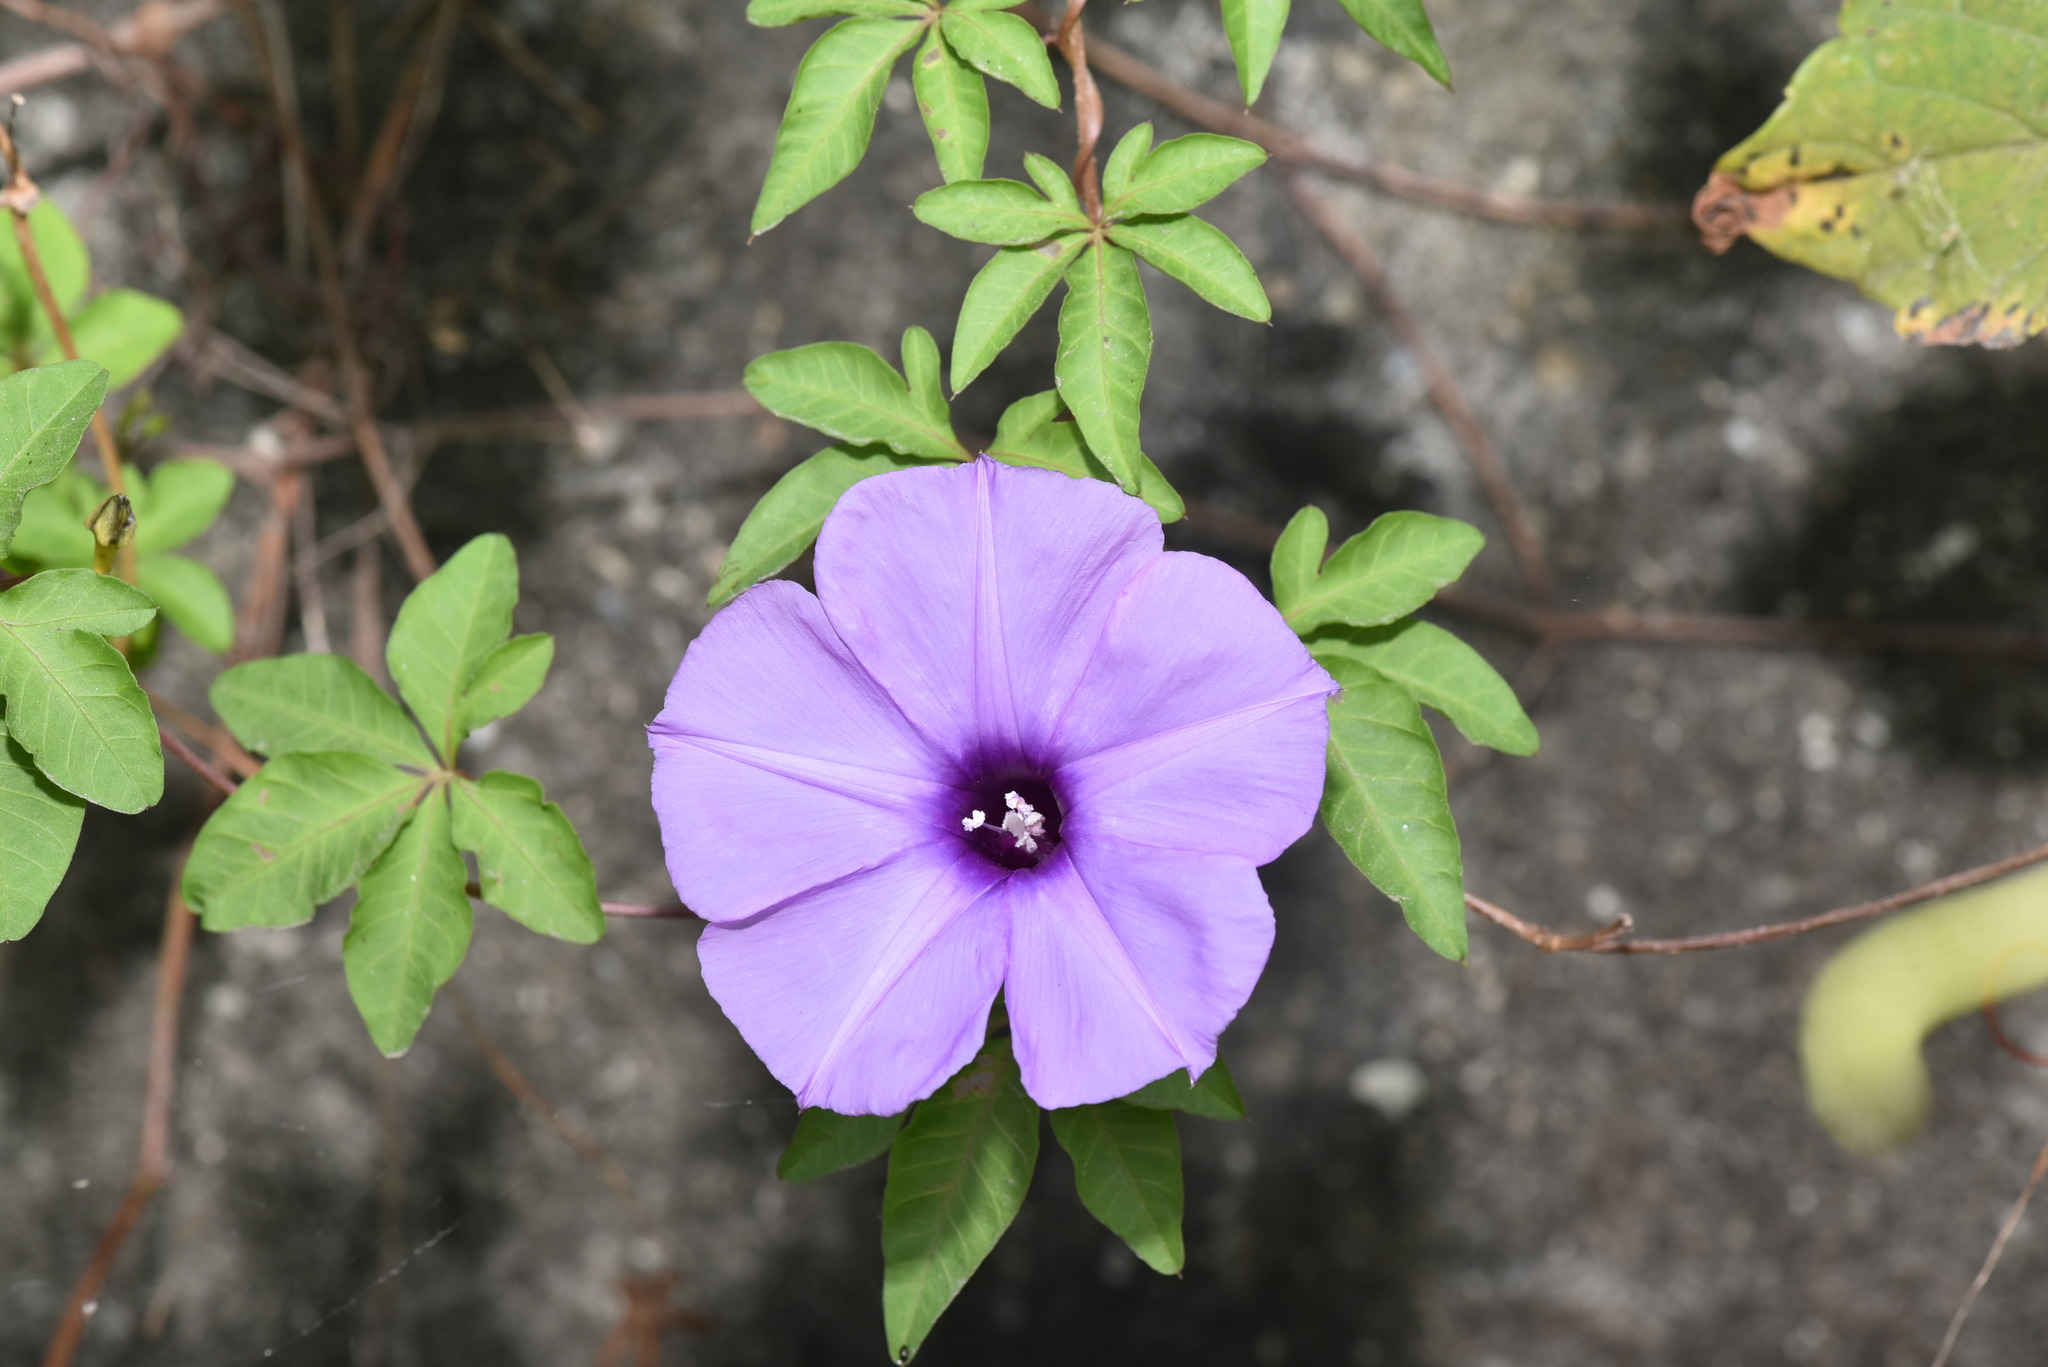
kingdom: Plantae
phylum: Tracheophyta
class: Magnoliopsida
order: Solanales
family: Convolvulaceae
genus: Ipomoea
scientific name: Ipomoea cairica
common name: Mile a minute vine
